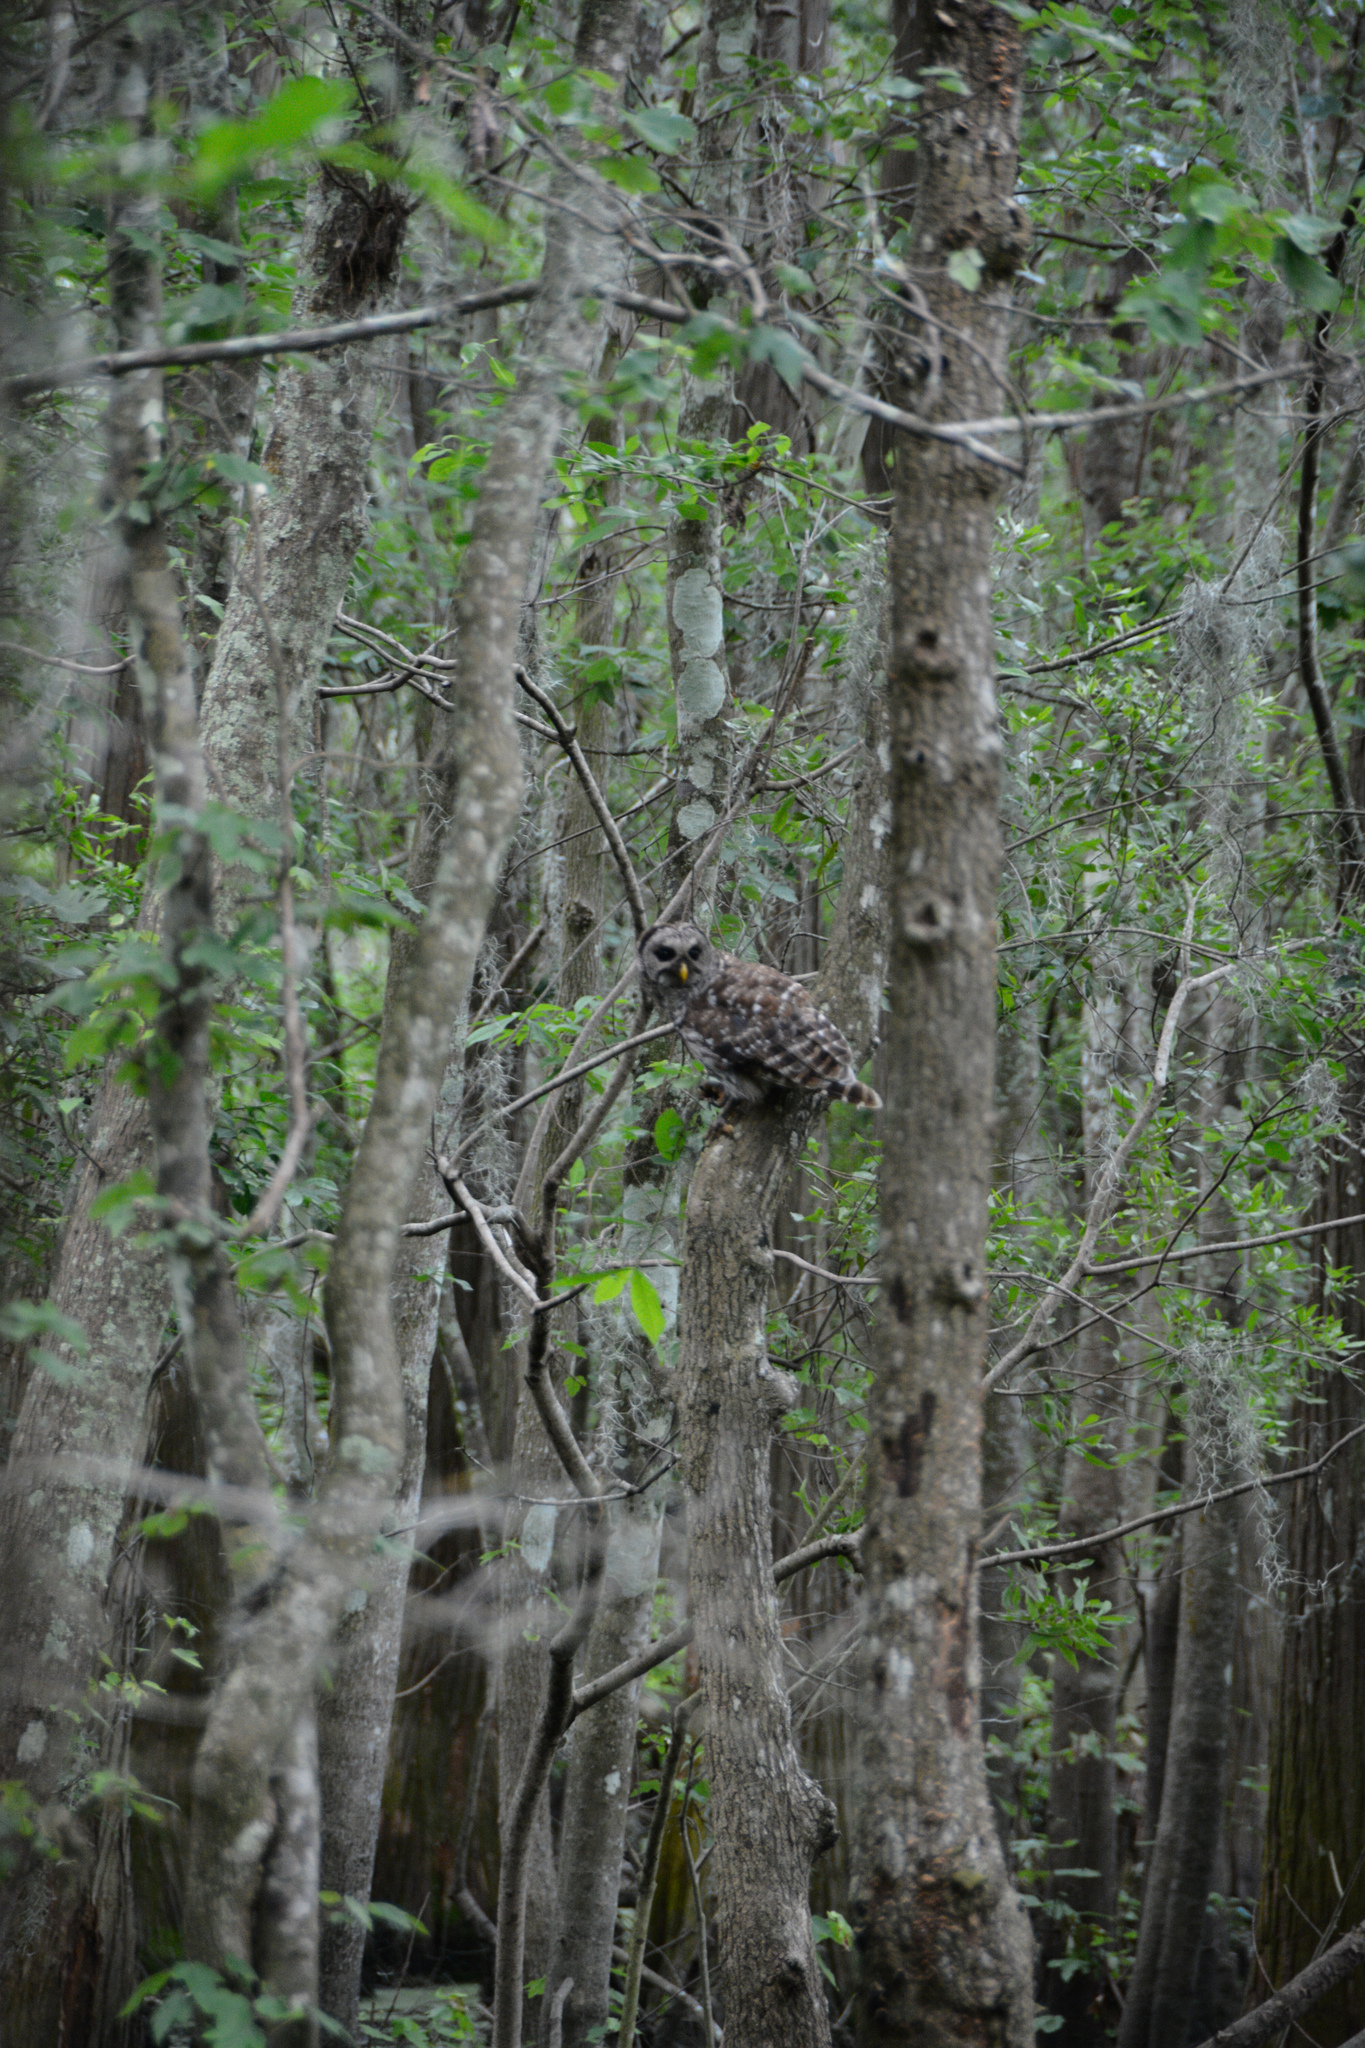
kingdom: Animalia
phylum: Chordata
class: Aves
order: Strigiformes
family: Strigidae
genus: Strix
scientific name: Strix varia
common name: Barred owl
